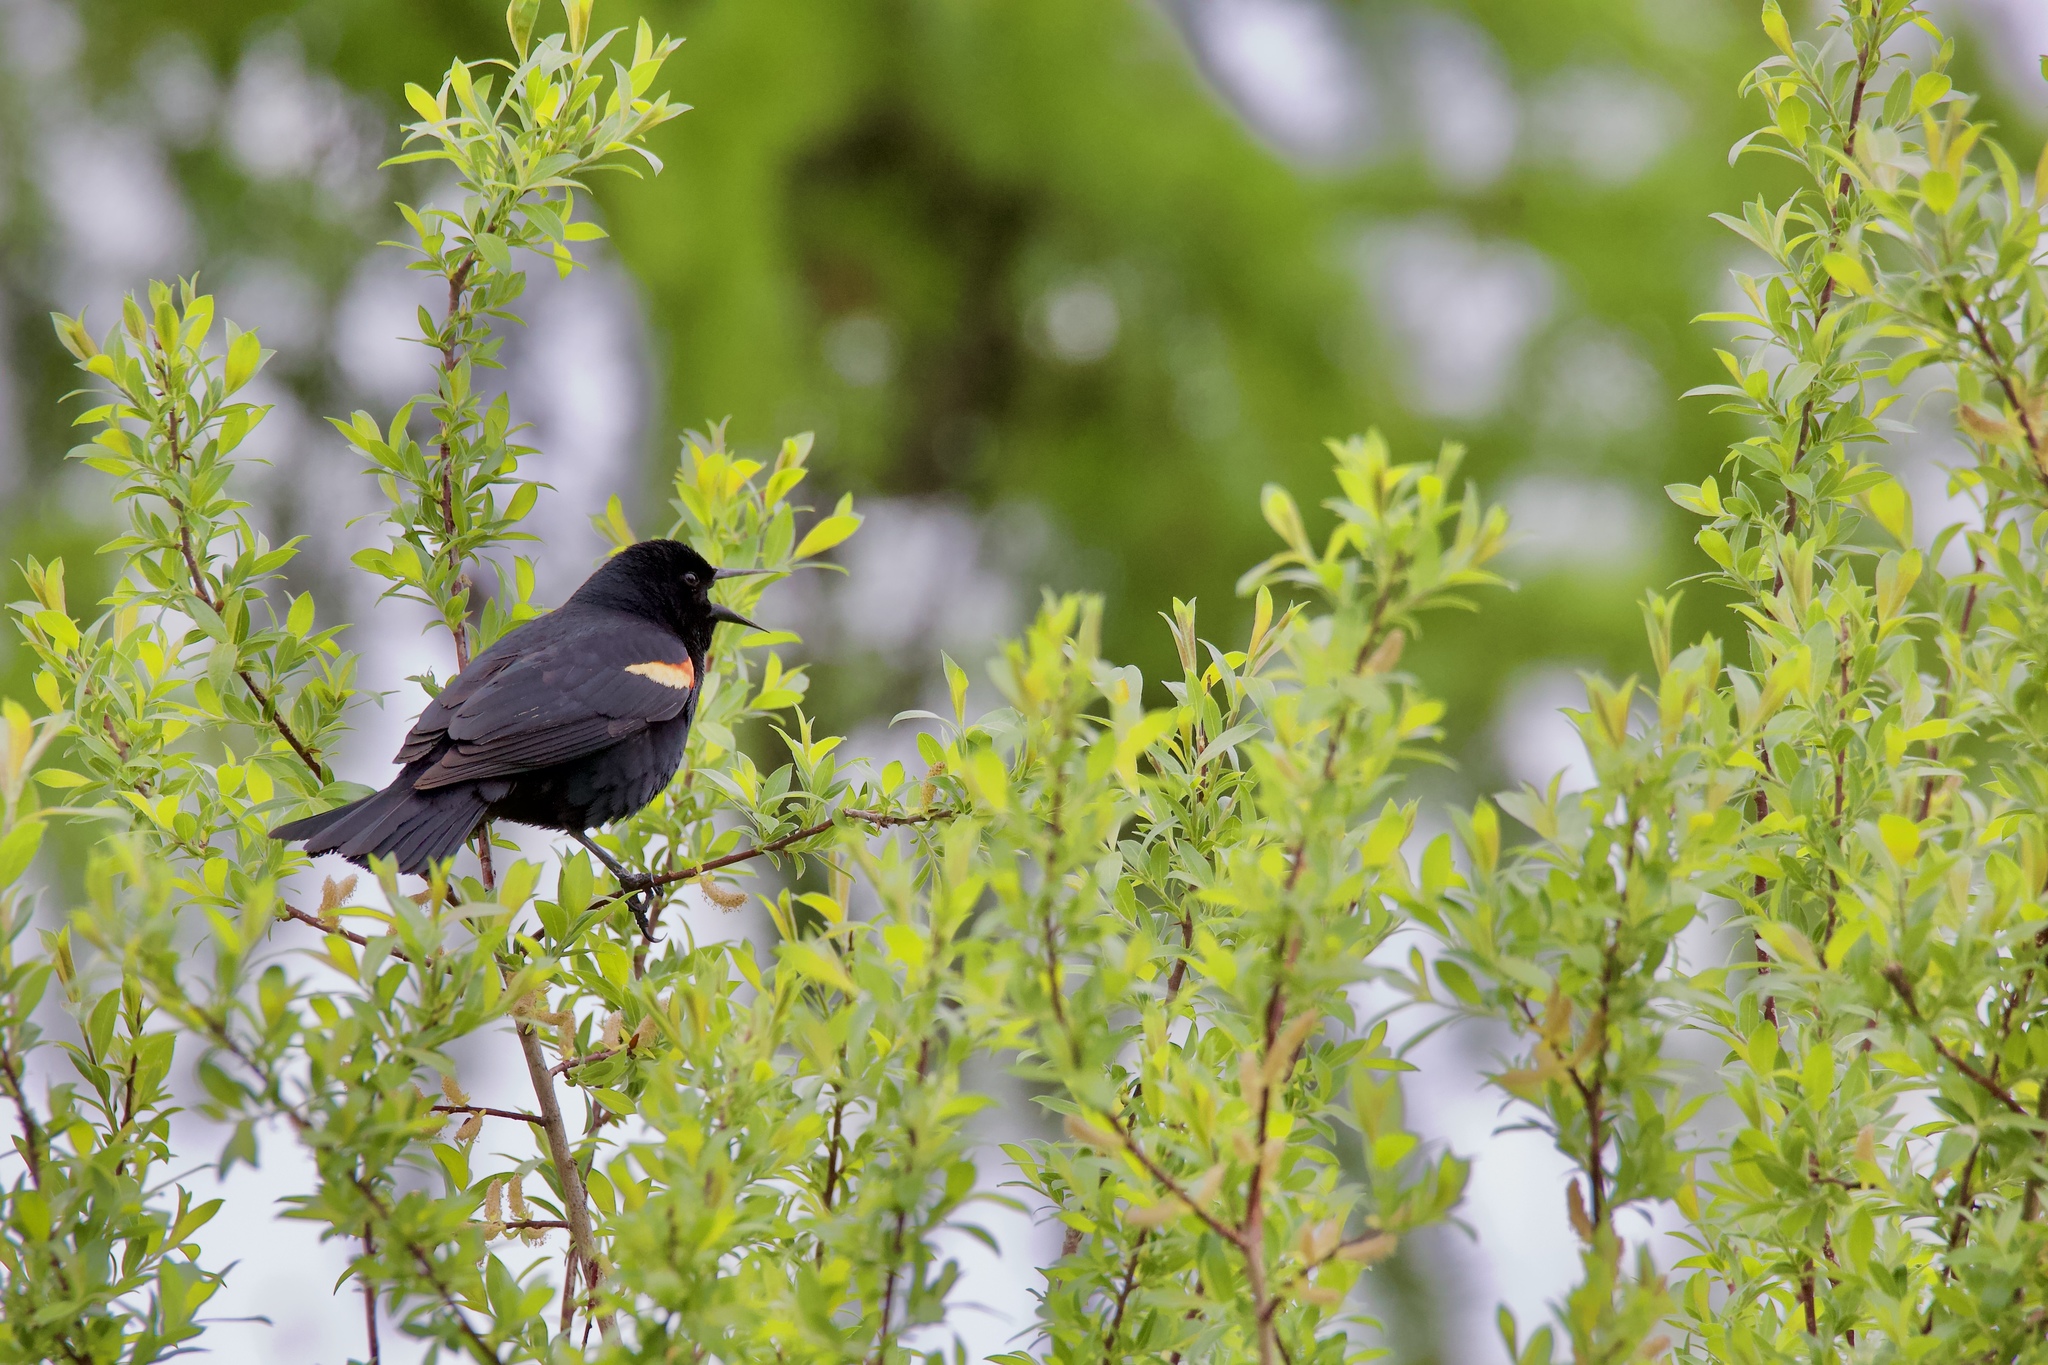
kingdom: Animalia
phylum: Chordata
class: Aves
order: Passeriformes
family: Icteridae
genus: Agelaius
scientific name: Agelaius phoeniceus
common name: Red-winged blackbird
